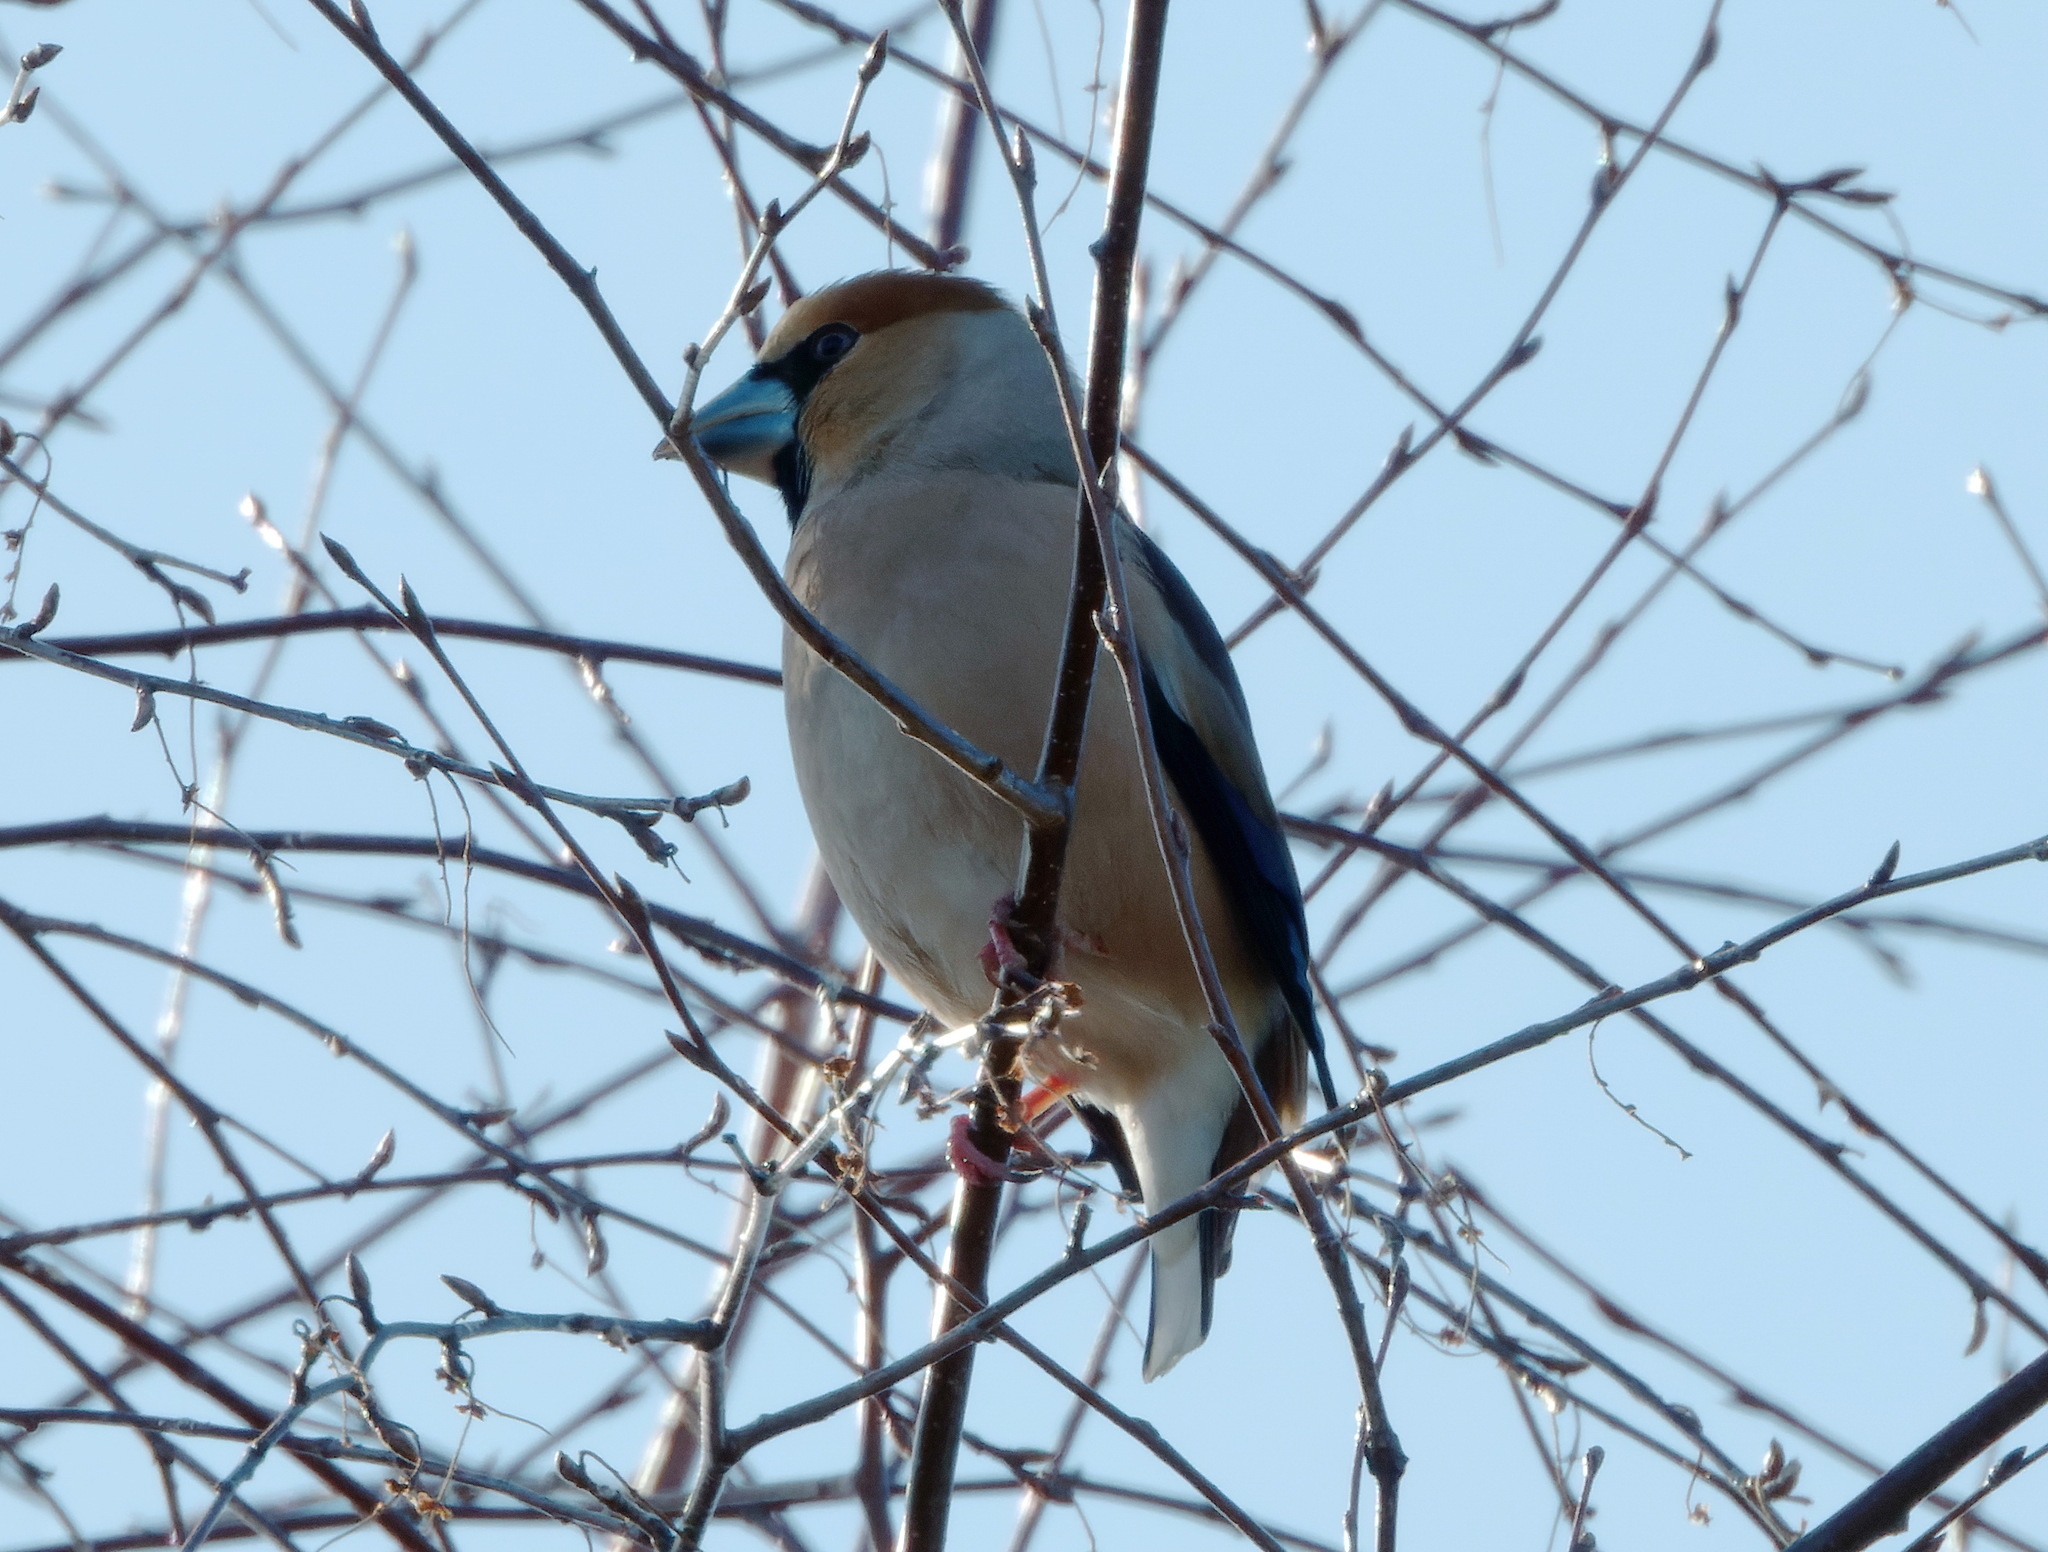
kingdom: Animalia
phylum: Chordata
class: Aves
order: Passeriformes
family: Fringillidae
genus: Coccothraustes
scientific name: Coccothraustes coccothraustes
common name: Hawfinch
